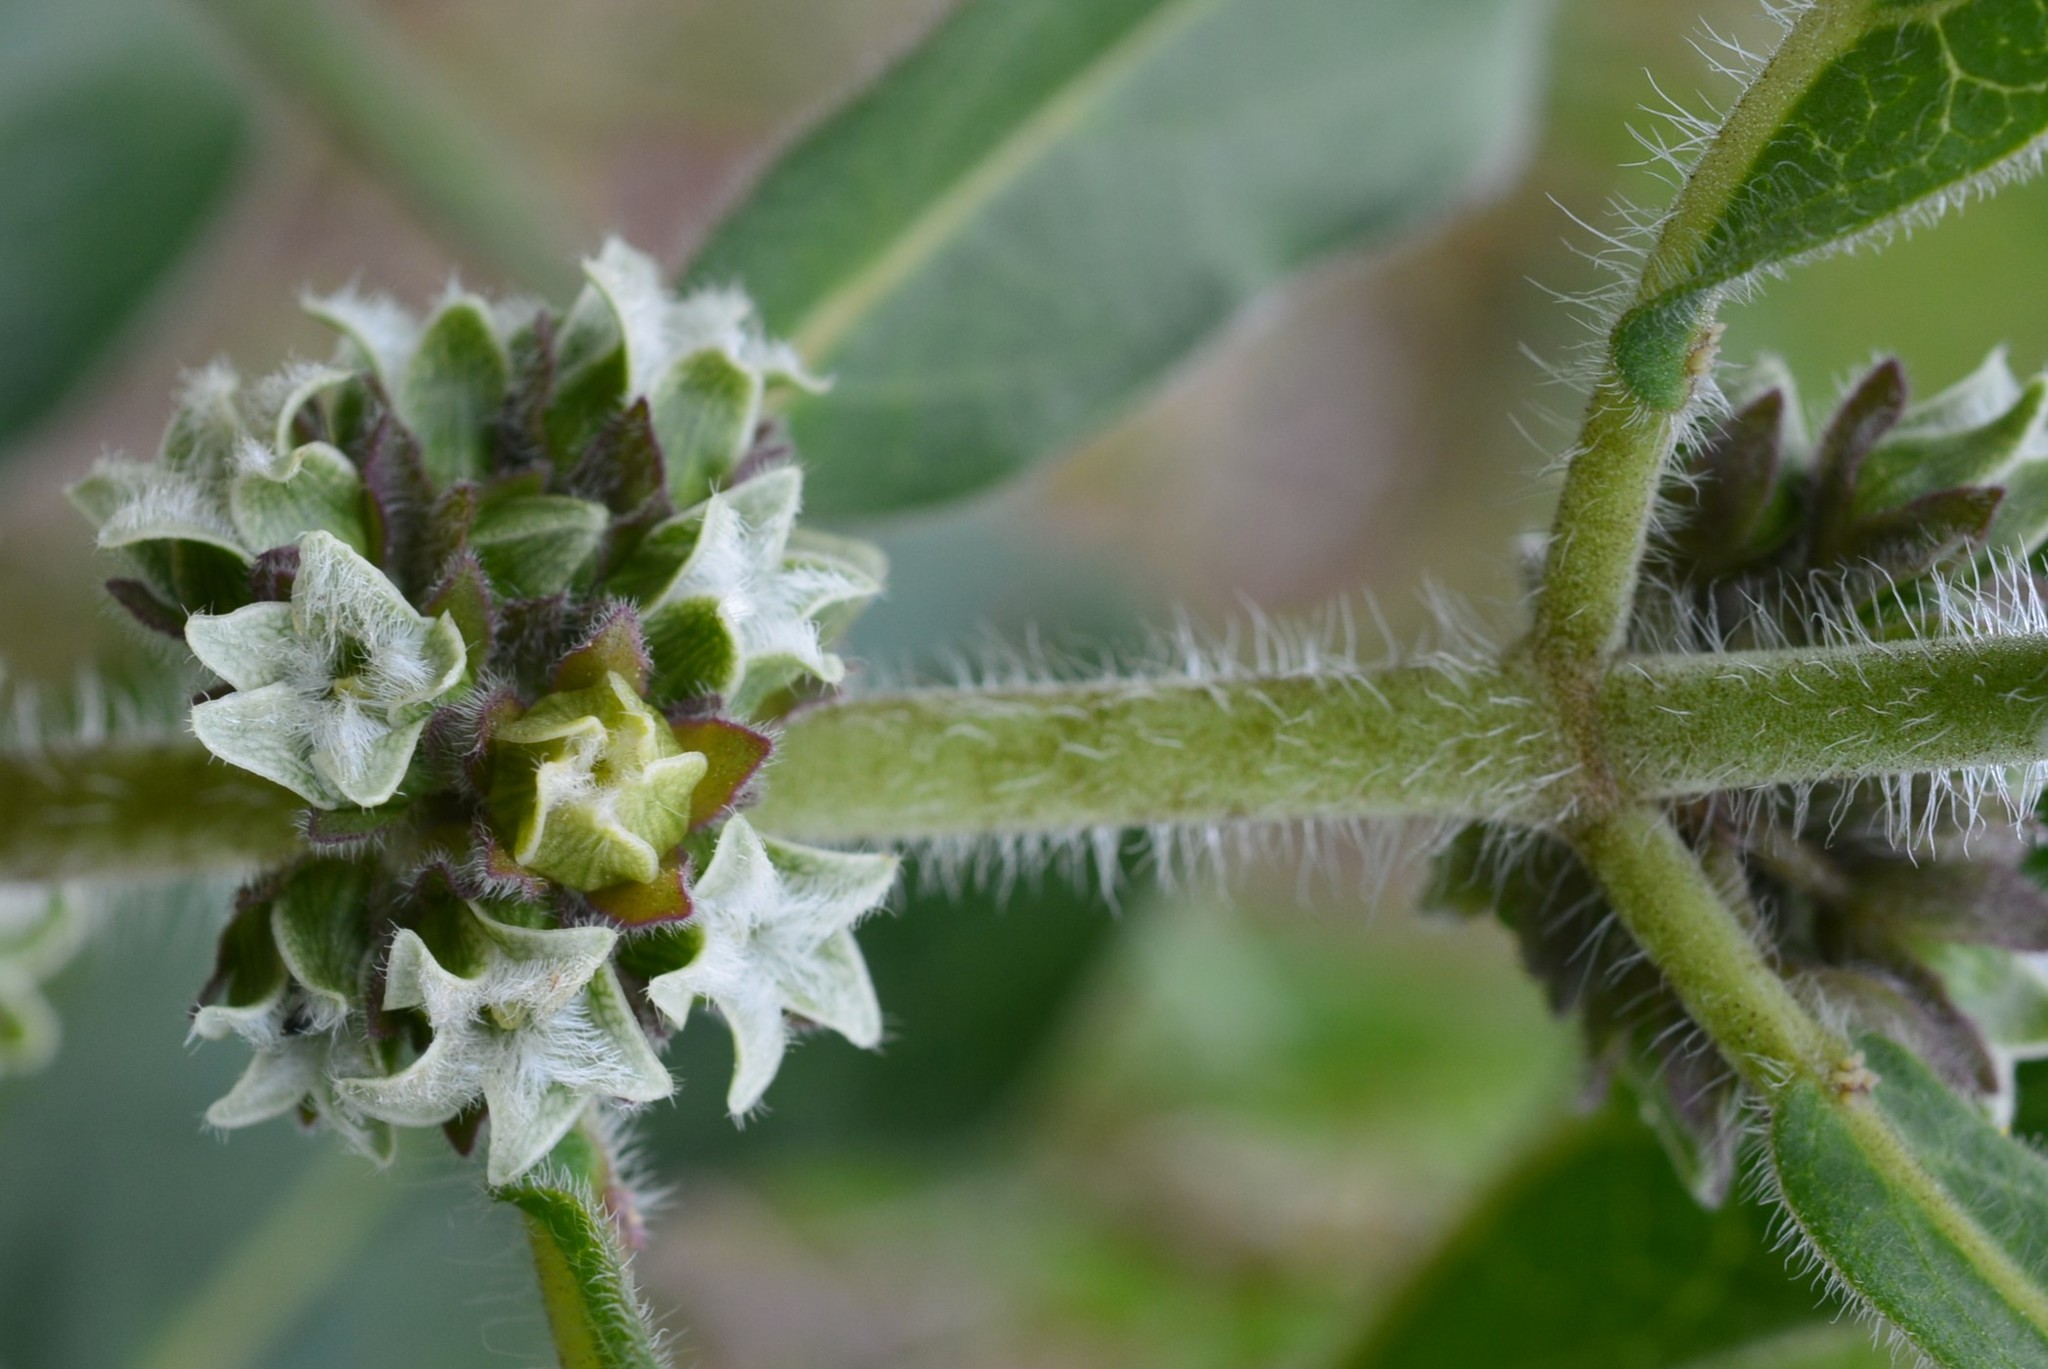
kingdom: Plantae
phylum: Tracheophyta
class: Magnoliopsida
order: Gentianales
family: Apocynaceae
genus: Pherotrichis
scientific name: Pherotrichis villosa
